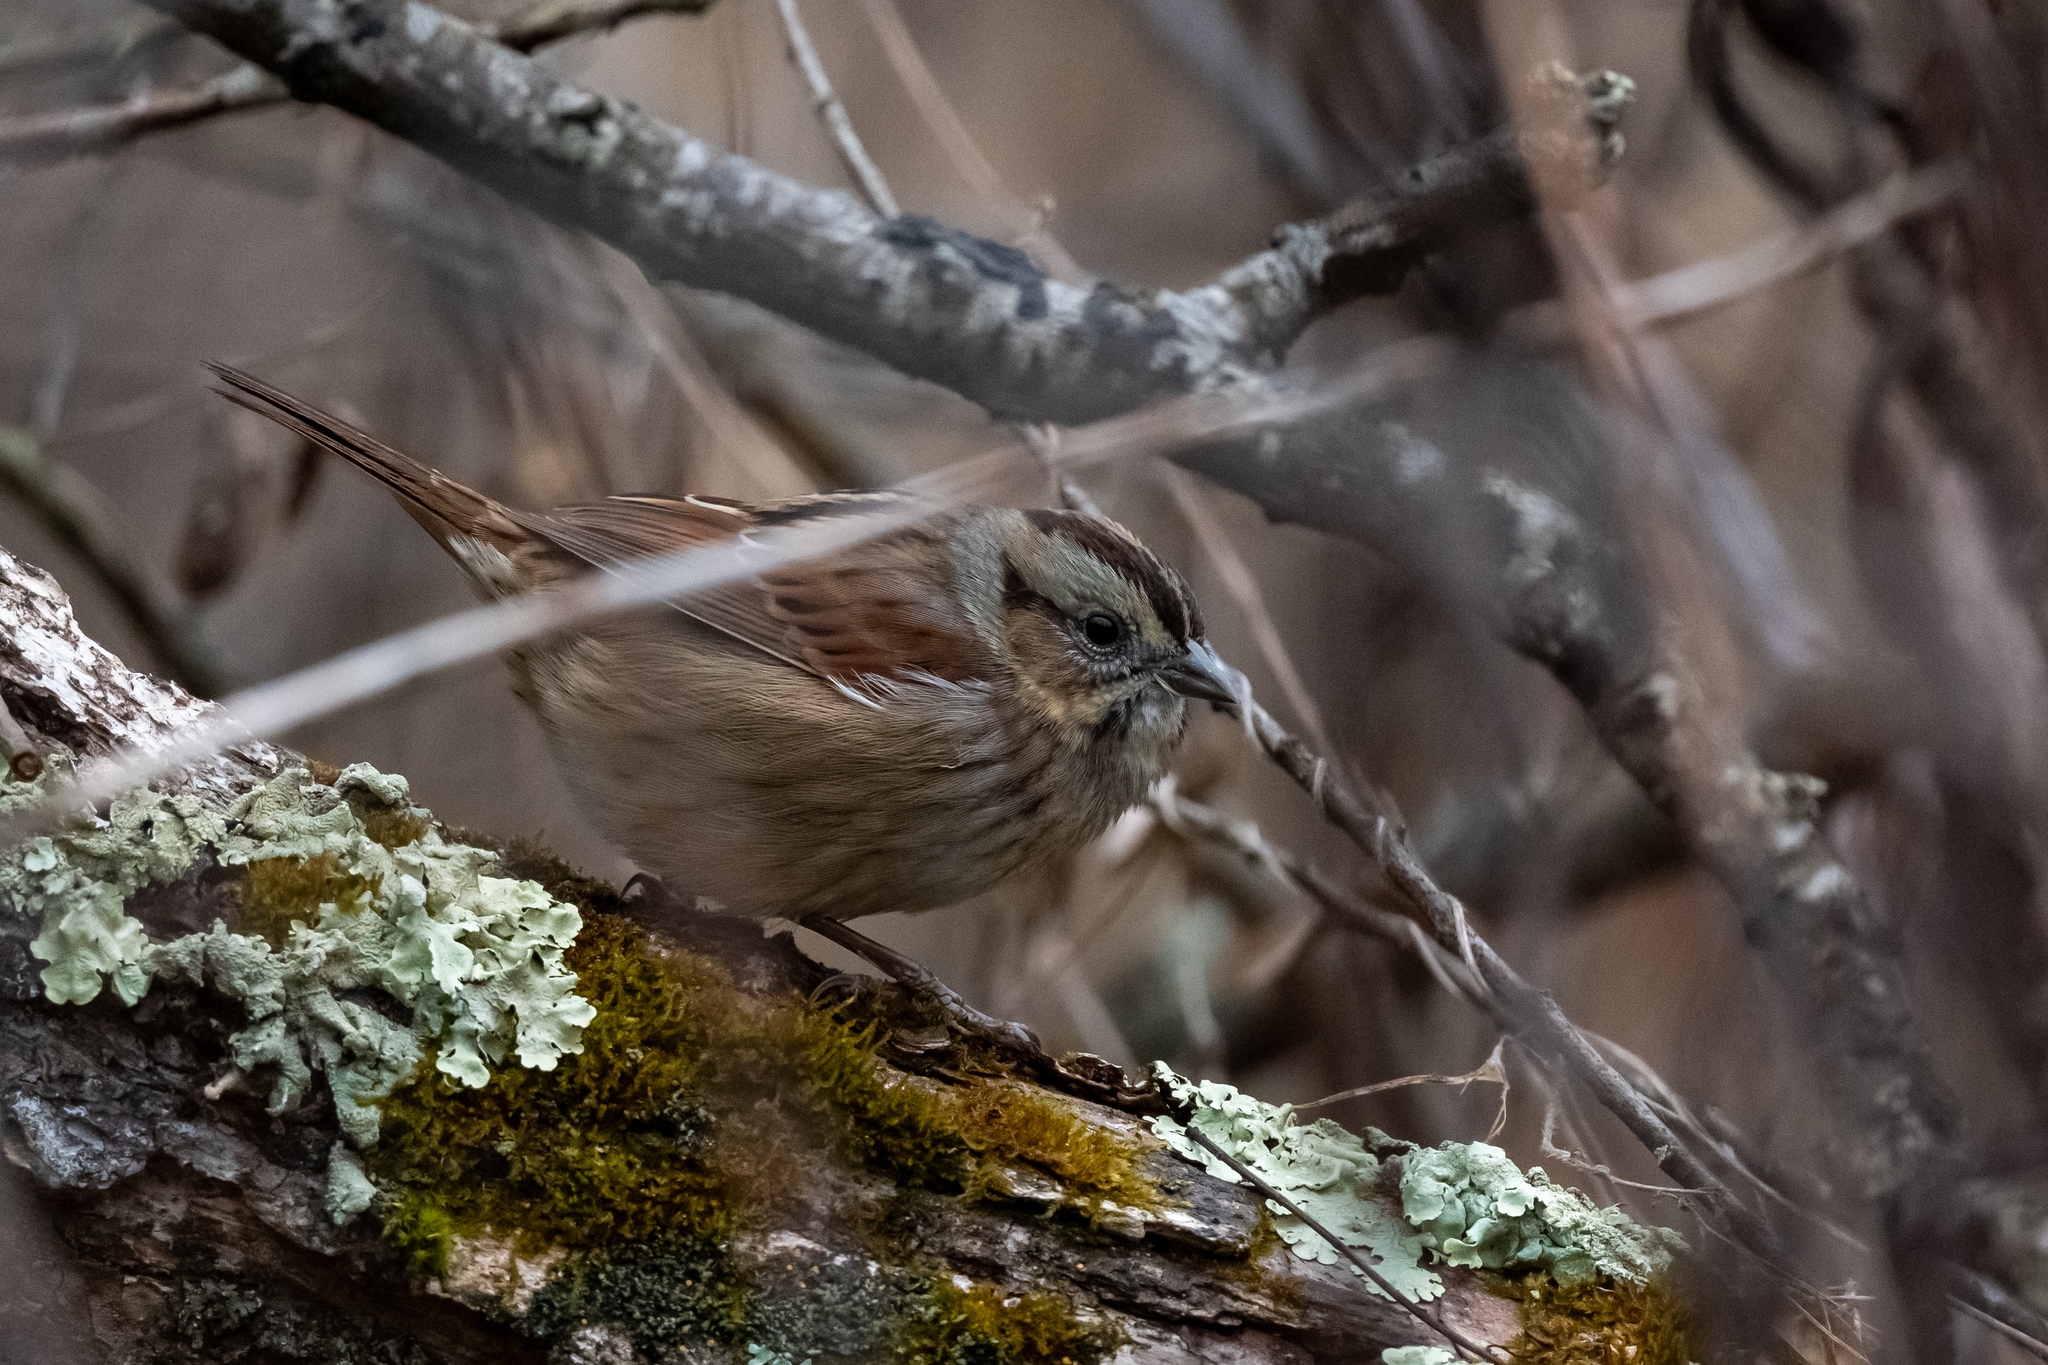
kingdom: Animalia
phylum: Chordata
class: Aves
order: Passeriformes
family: Passerellidae
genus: Melospiza
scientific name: Melospiza georgiana
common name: Swamp sparrow
